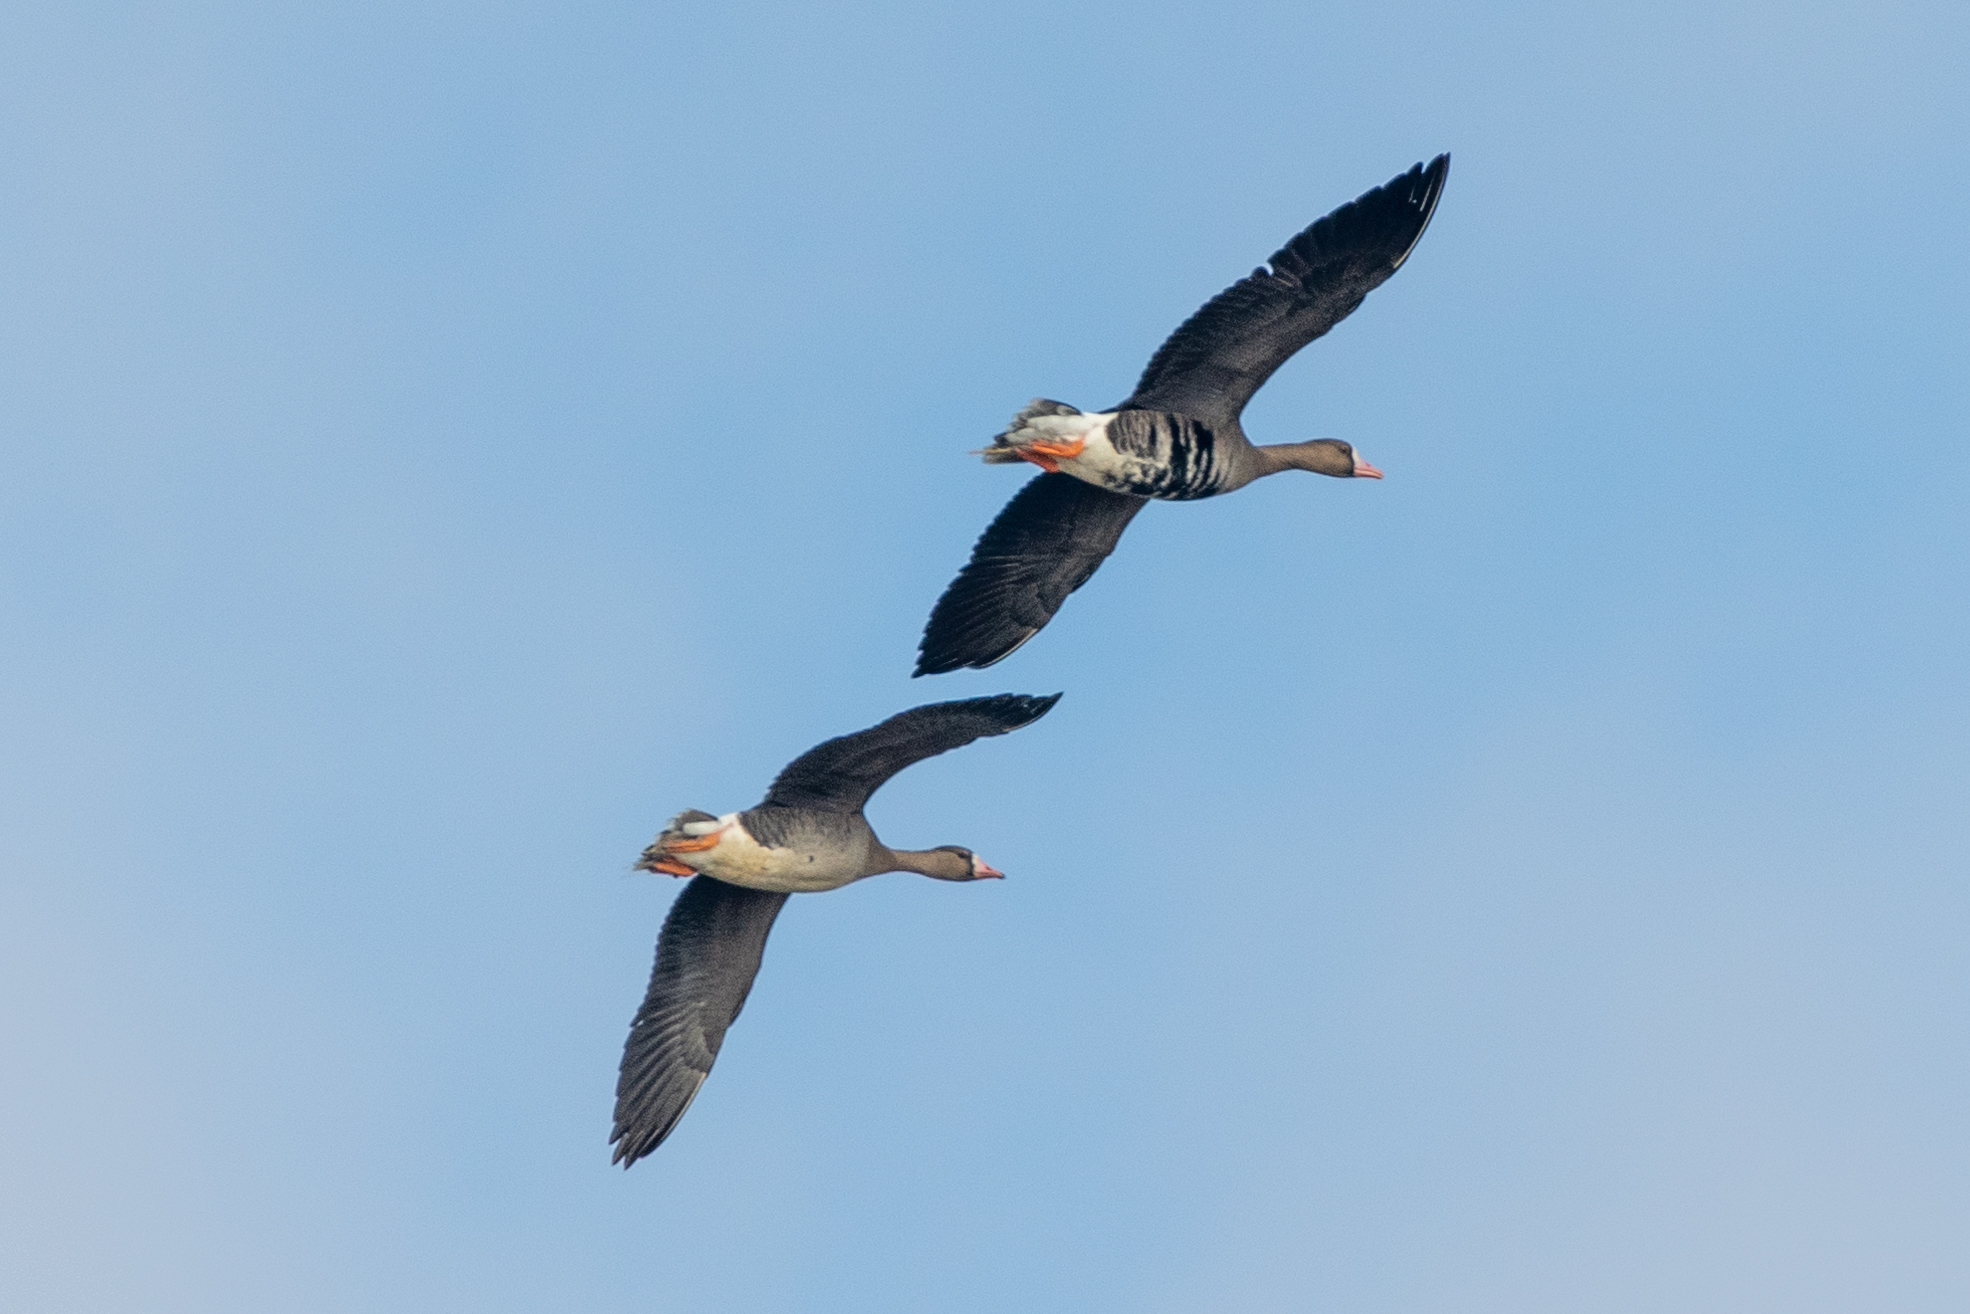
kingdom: Animalia
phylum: Chordata
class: Aves
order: Anseriformes
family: Anatidae
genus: Anser
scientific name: Anser albifrons
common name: Greater white-fronted goose
